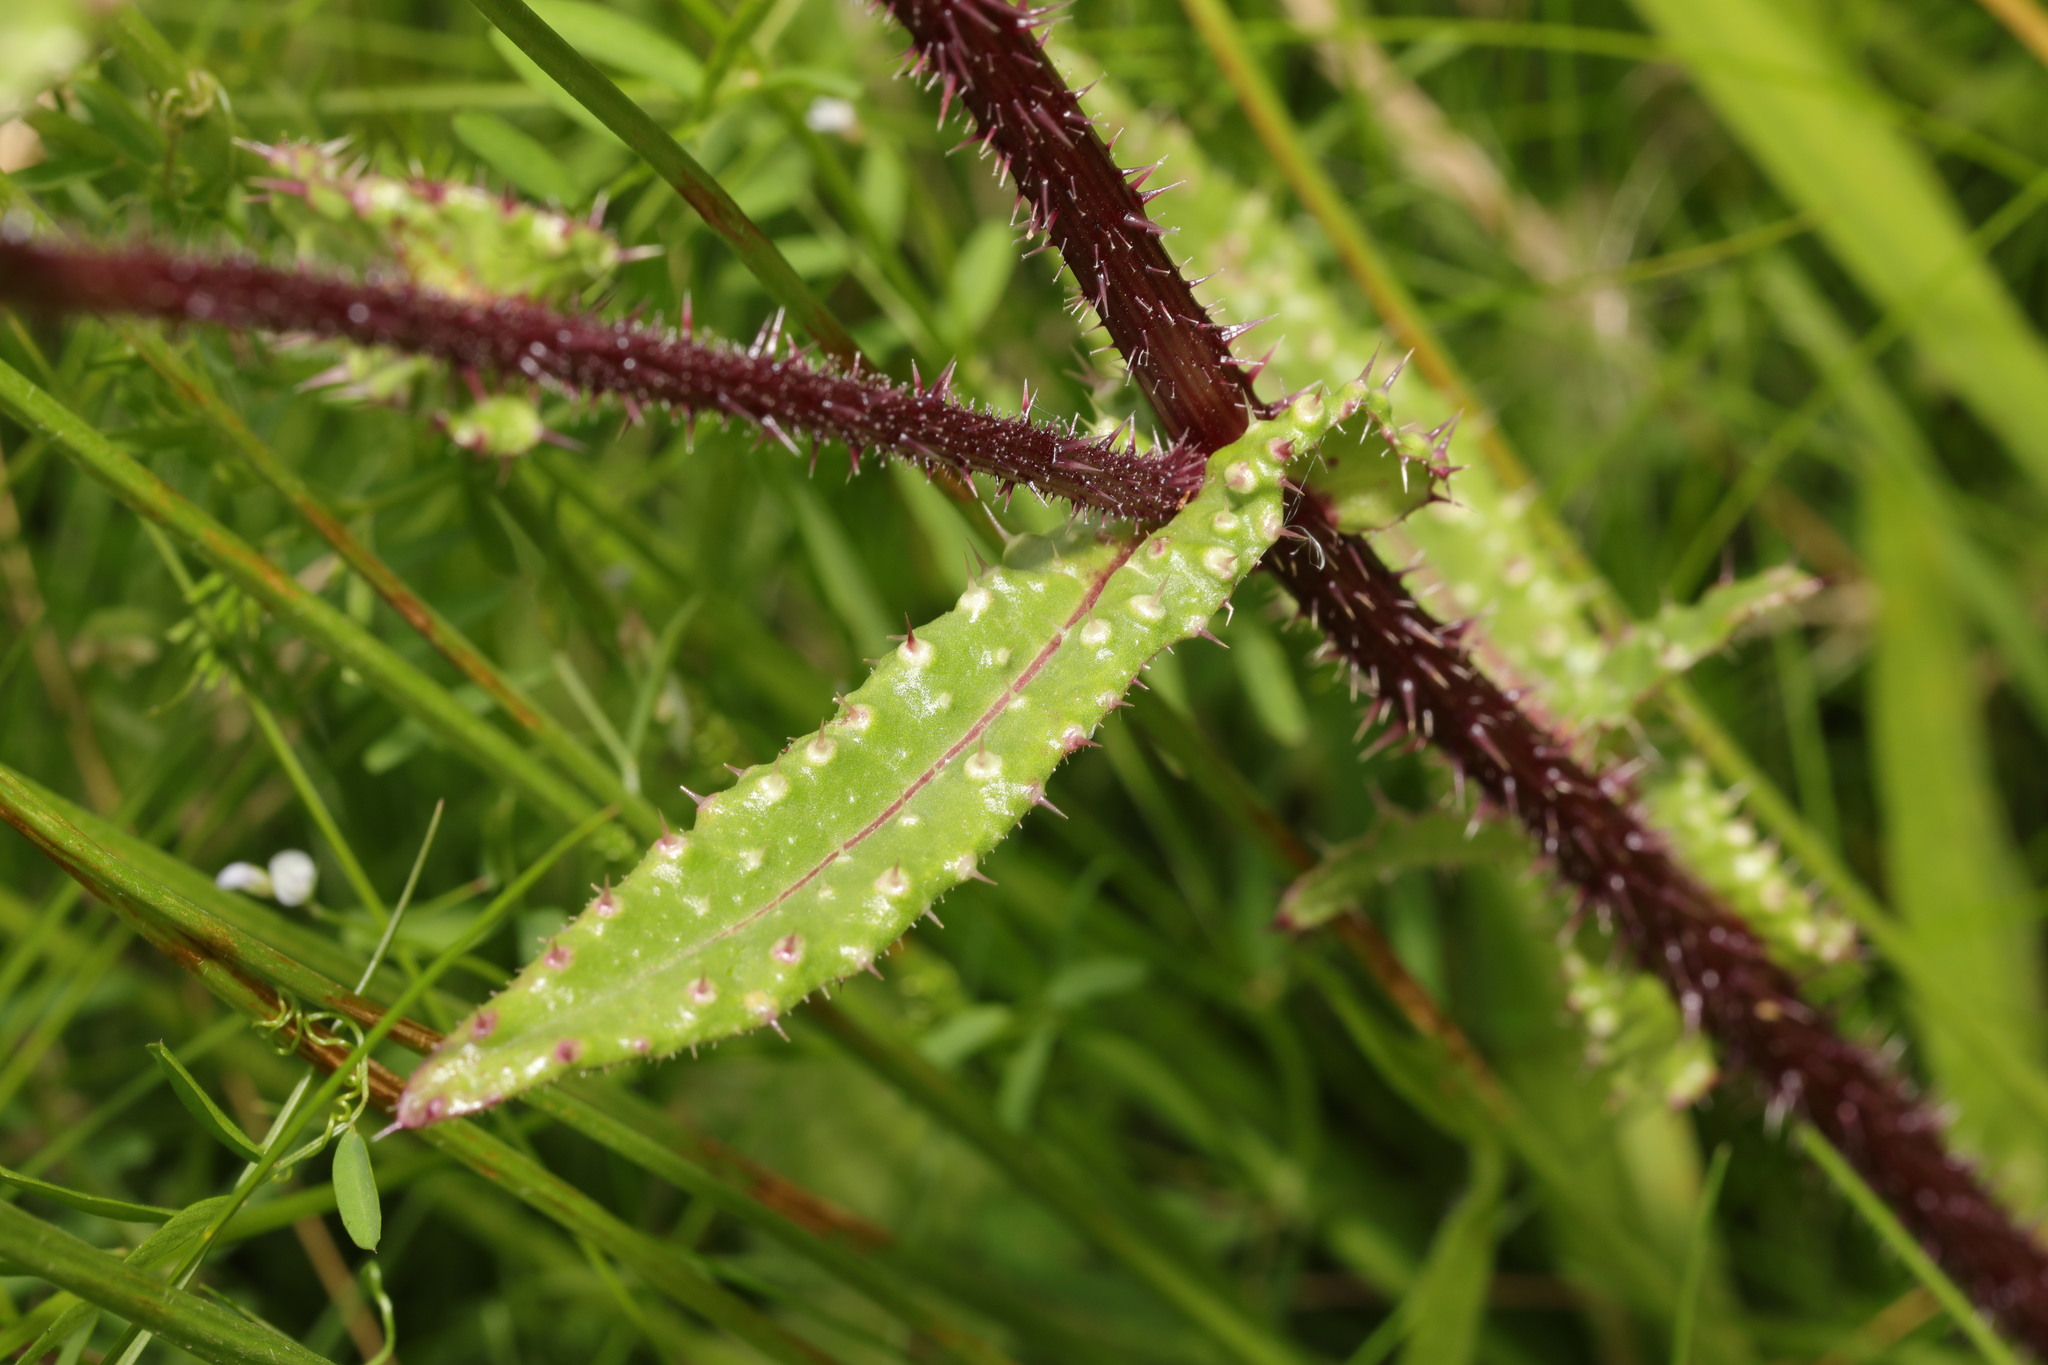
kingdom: Plantae
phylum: Tracheophyta
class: Magnoliopsida
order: Asterales
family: Asteraceae
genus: Helminthotheca
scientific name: Helminthotheca echioides
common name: Ox-tongue
